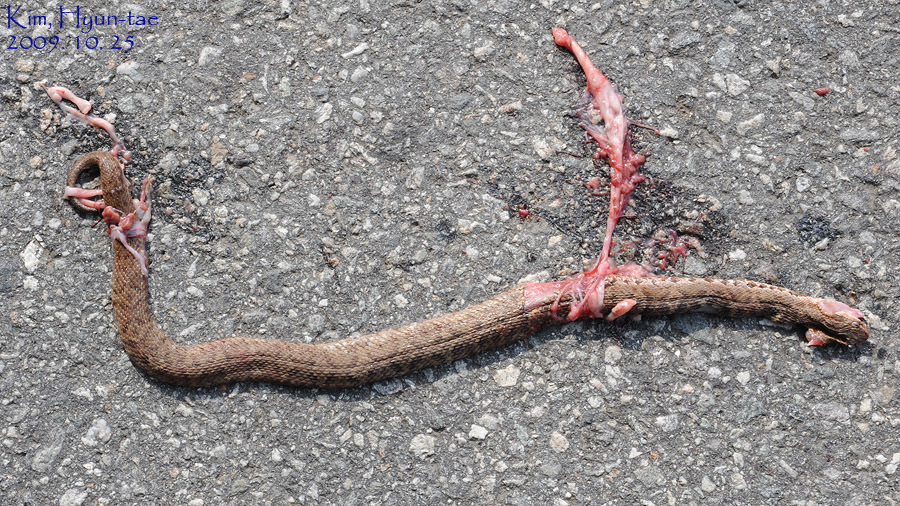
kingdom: Animalia
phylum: Chordata
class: Squamata
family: Viperidae
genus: Gloydius
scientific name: Gloydius ussuriensis
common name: Ussuri mamushi
